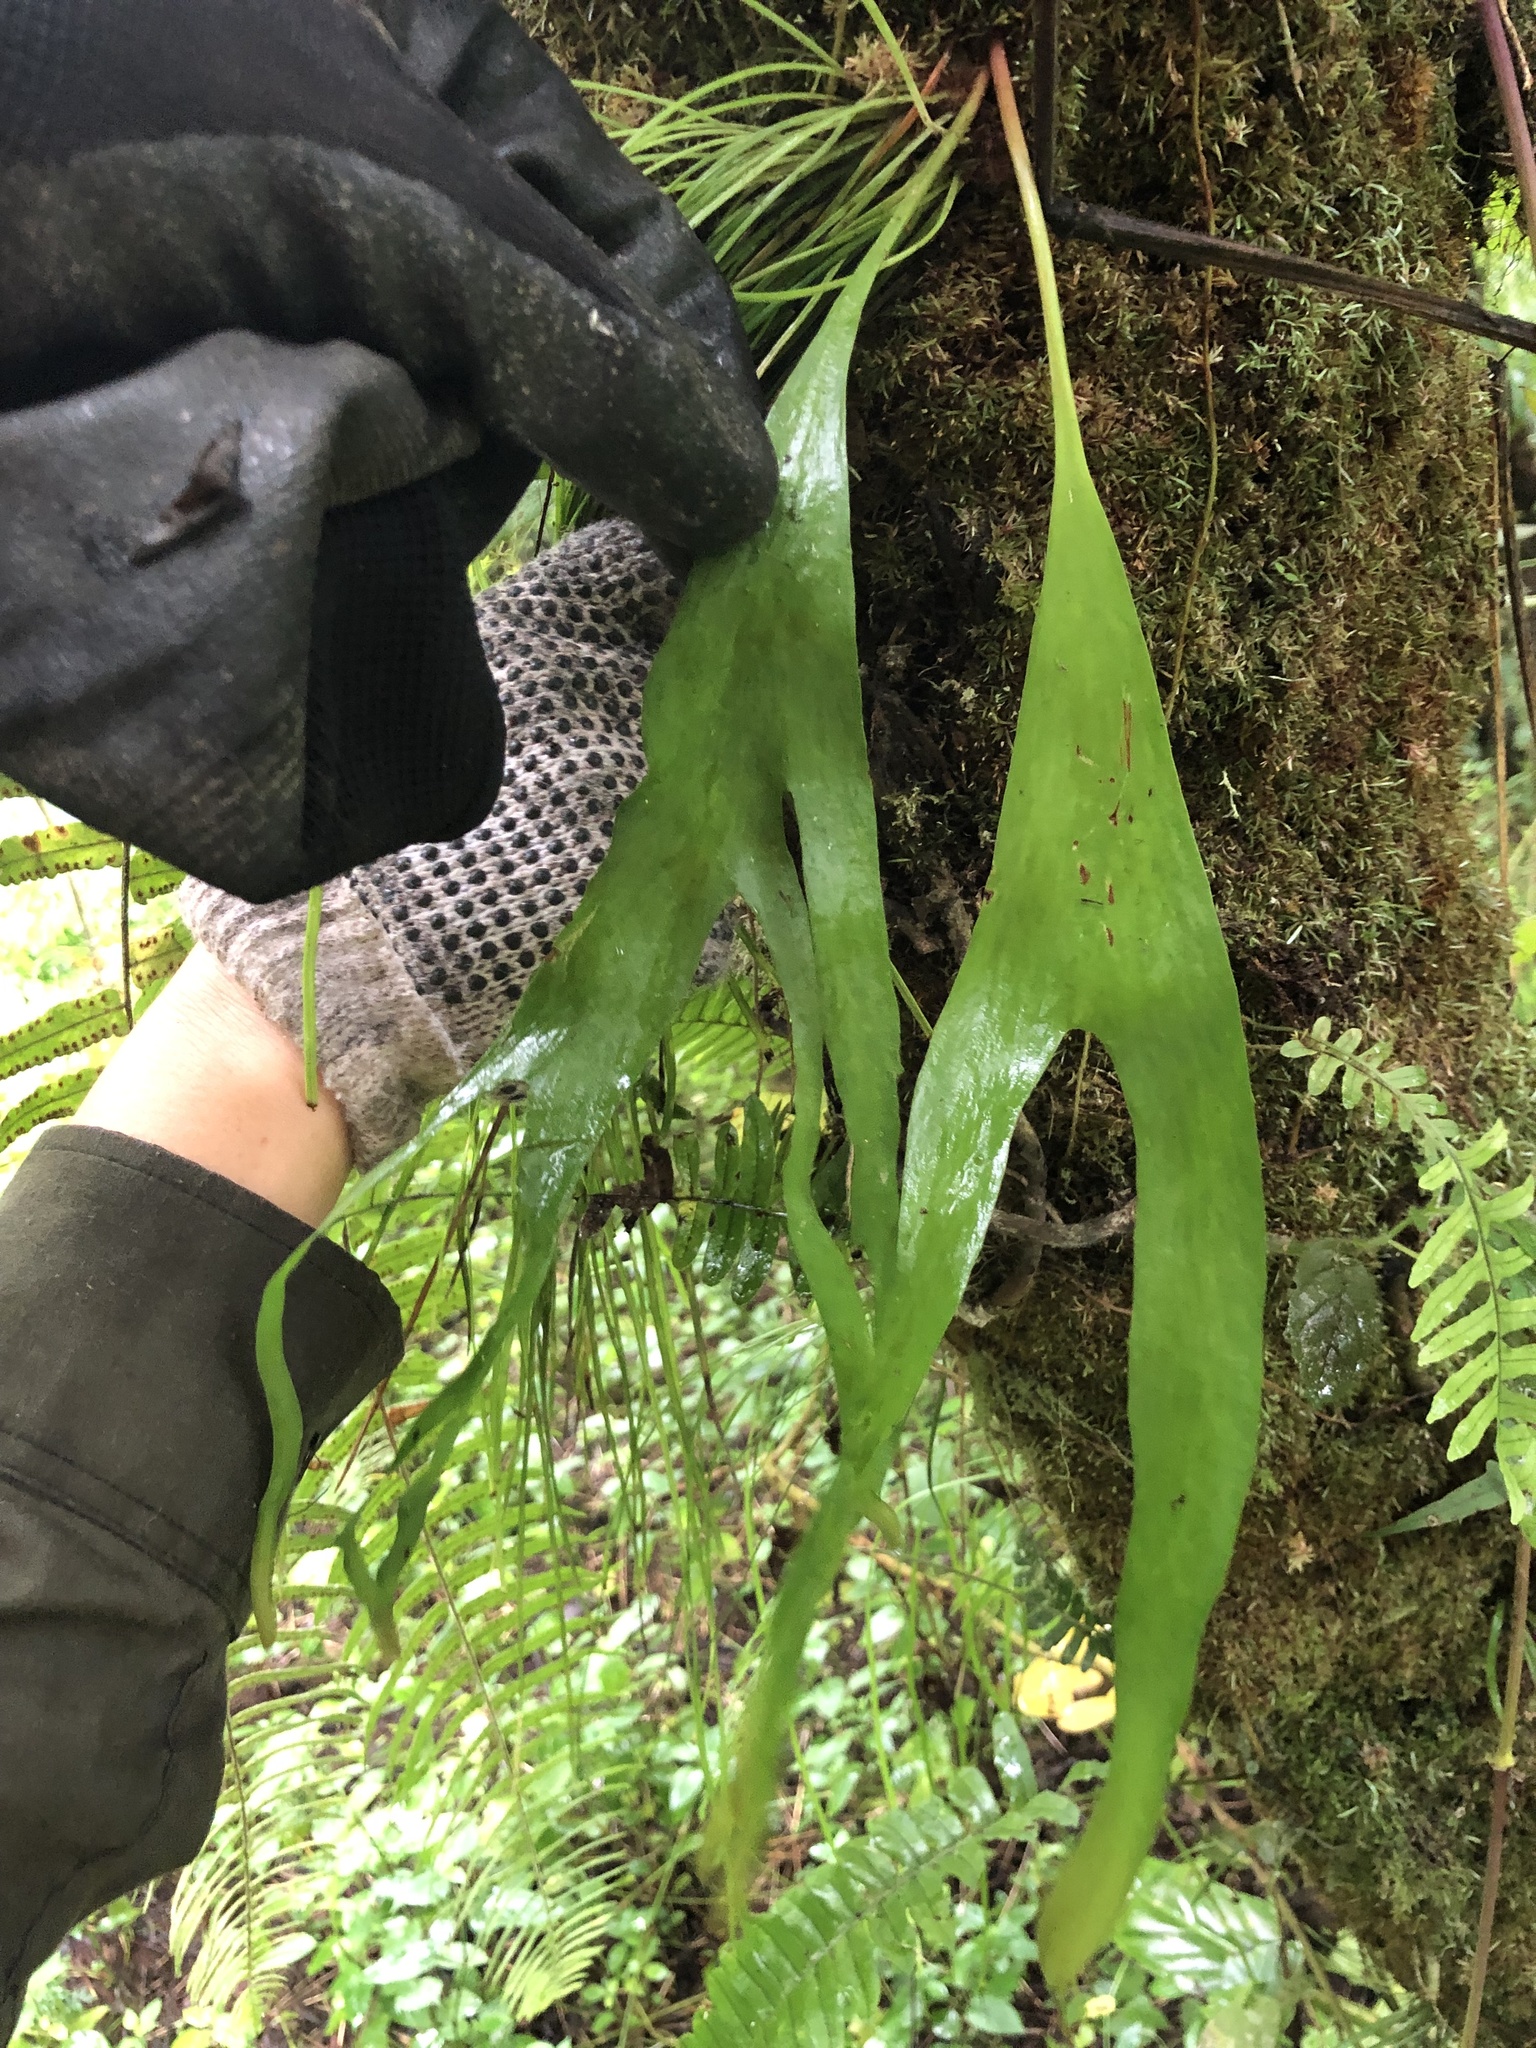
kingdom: Plantae
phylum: Tracheophyta
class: Polypodiopsida
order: Ophioglossales
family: Ophioglossaceae
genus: Cheiroglossa
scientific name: Cheiroglossa palmata
